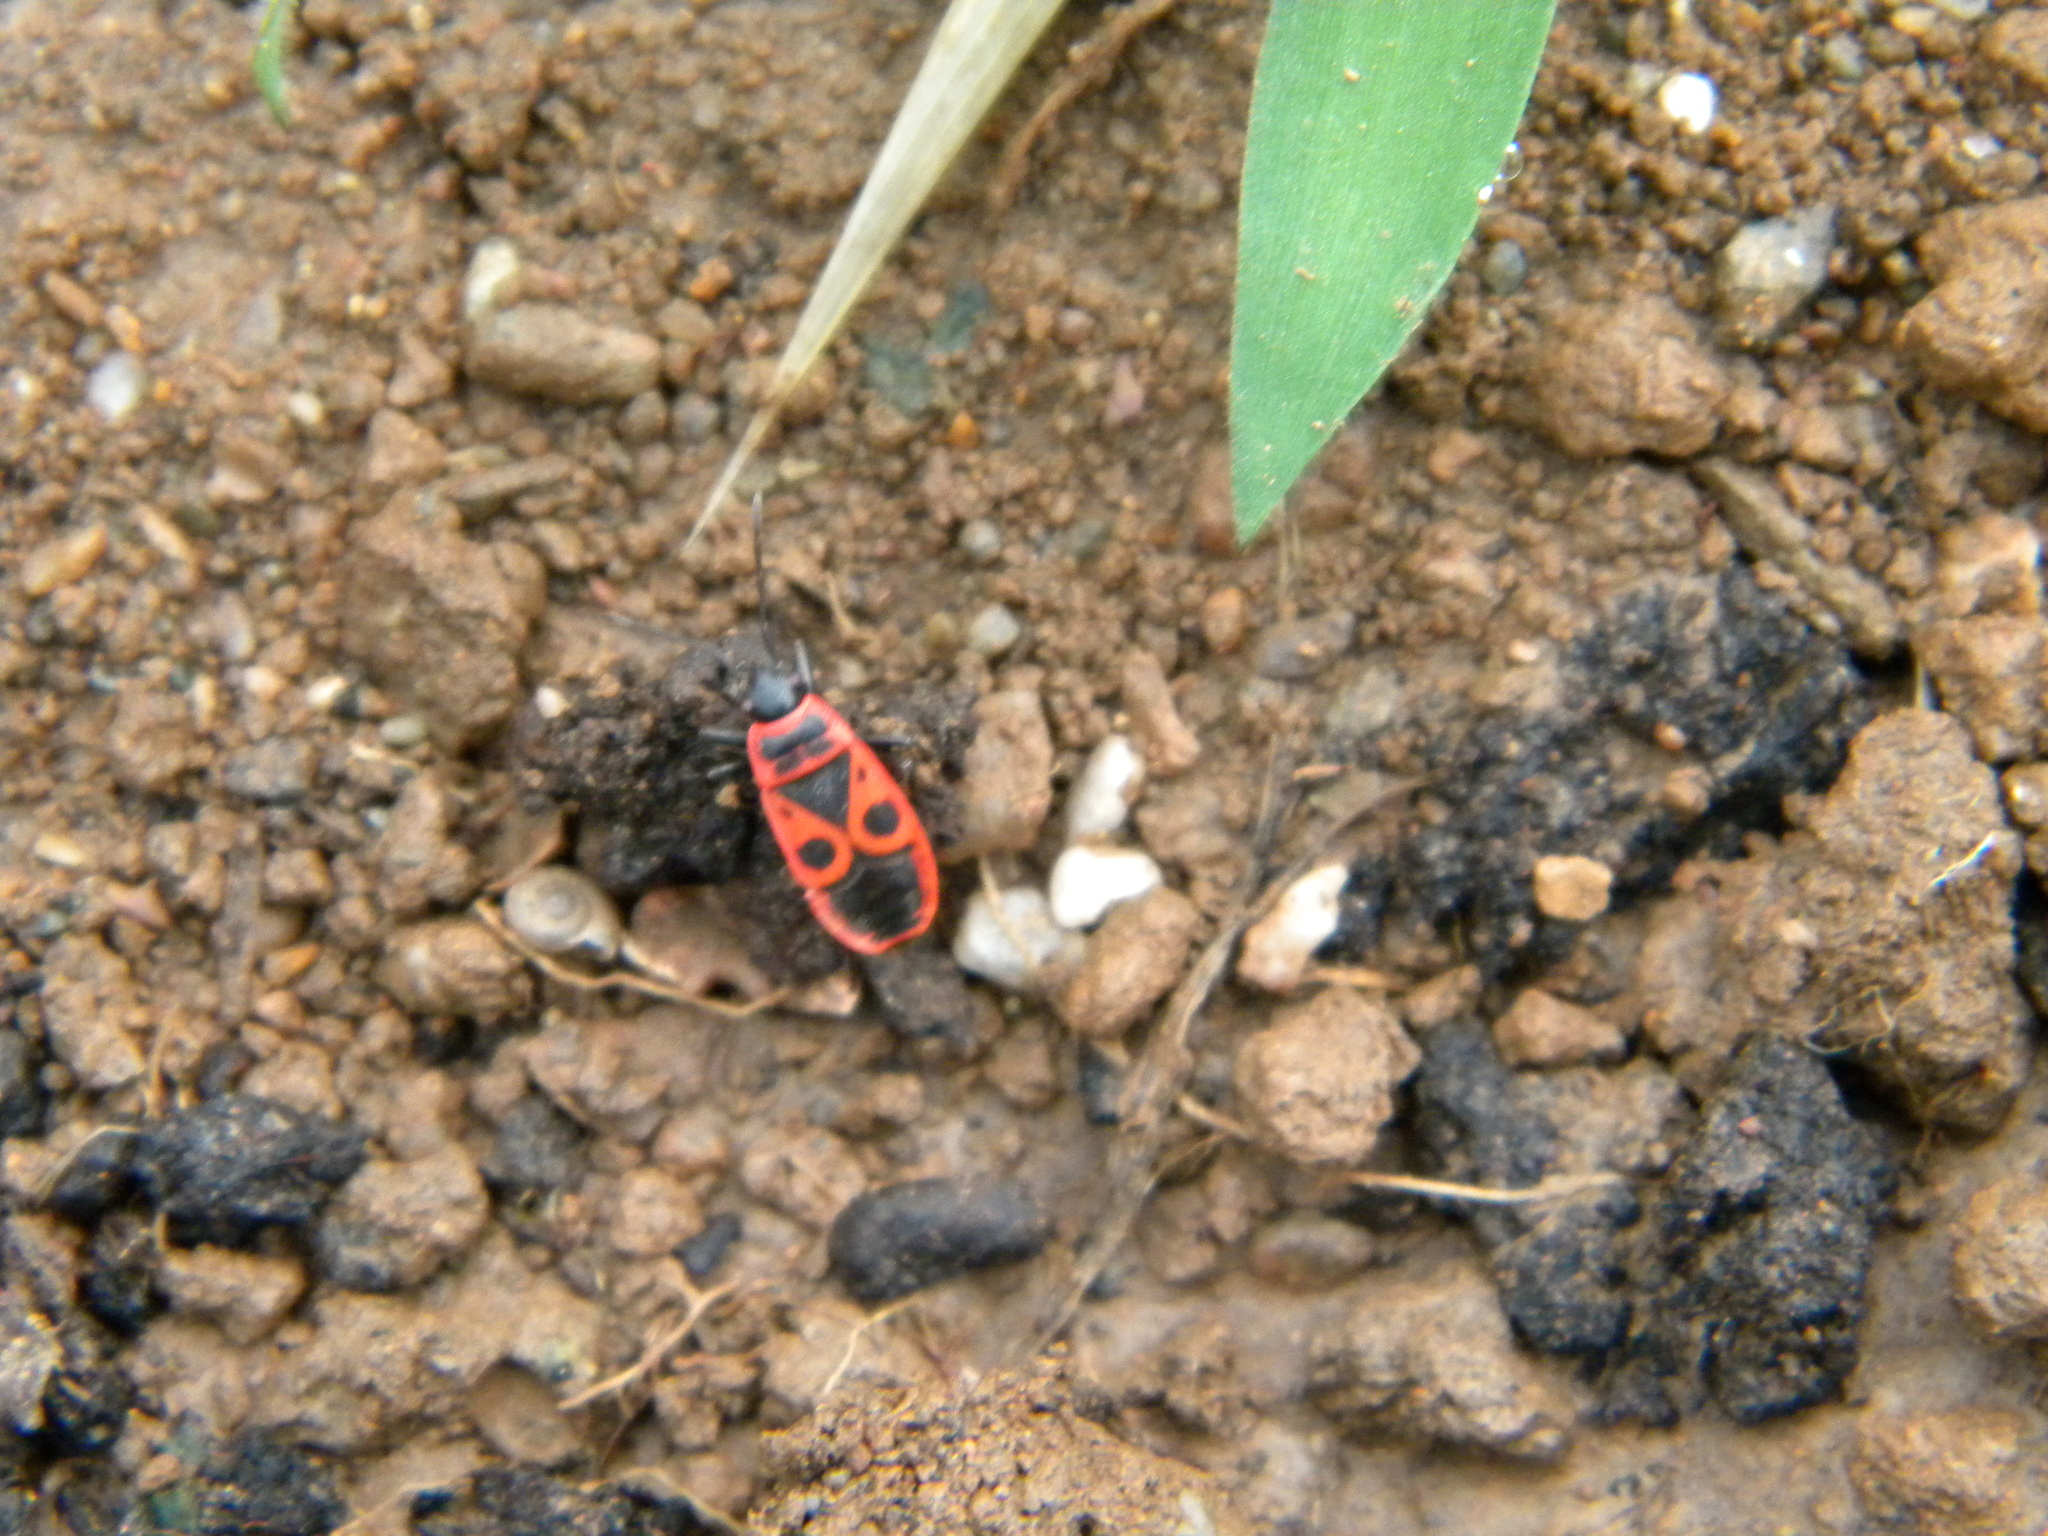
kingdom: Animalia
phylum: Arthropoda
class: Insecta
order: Hemiptera
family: Pyrrhocoridae
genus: Pyrrhocoris
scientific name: Pyrrhocoris apterus
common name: Firebug
